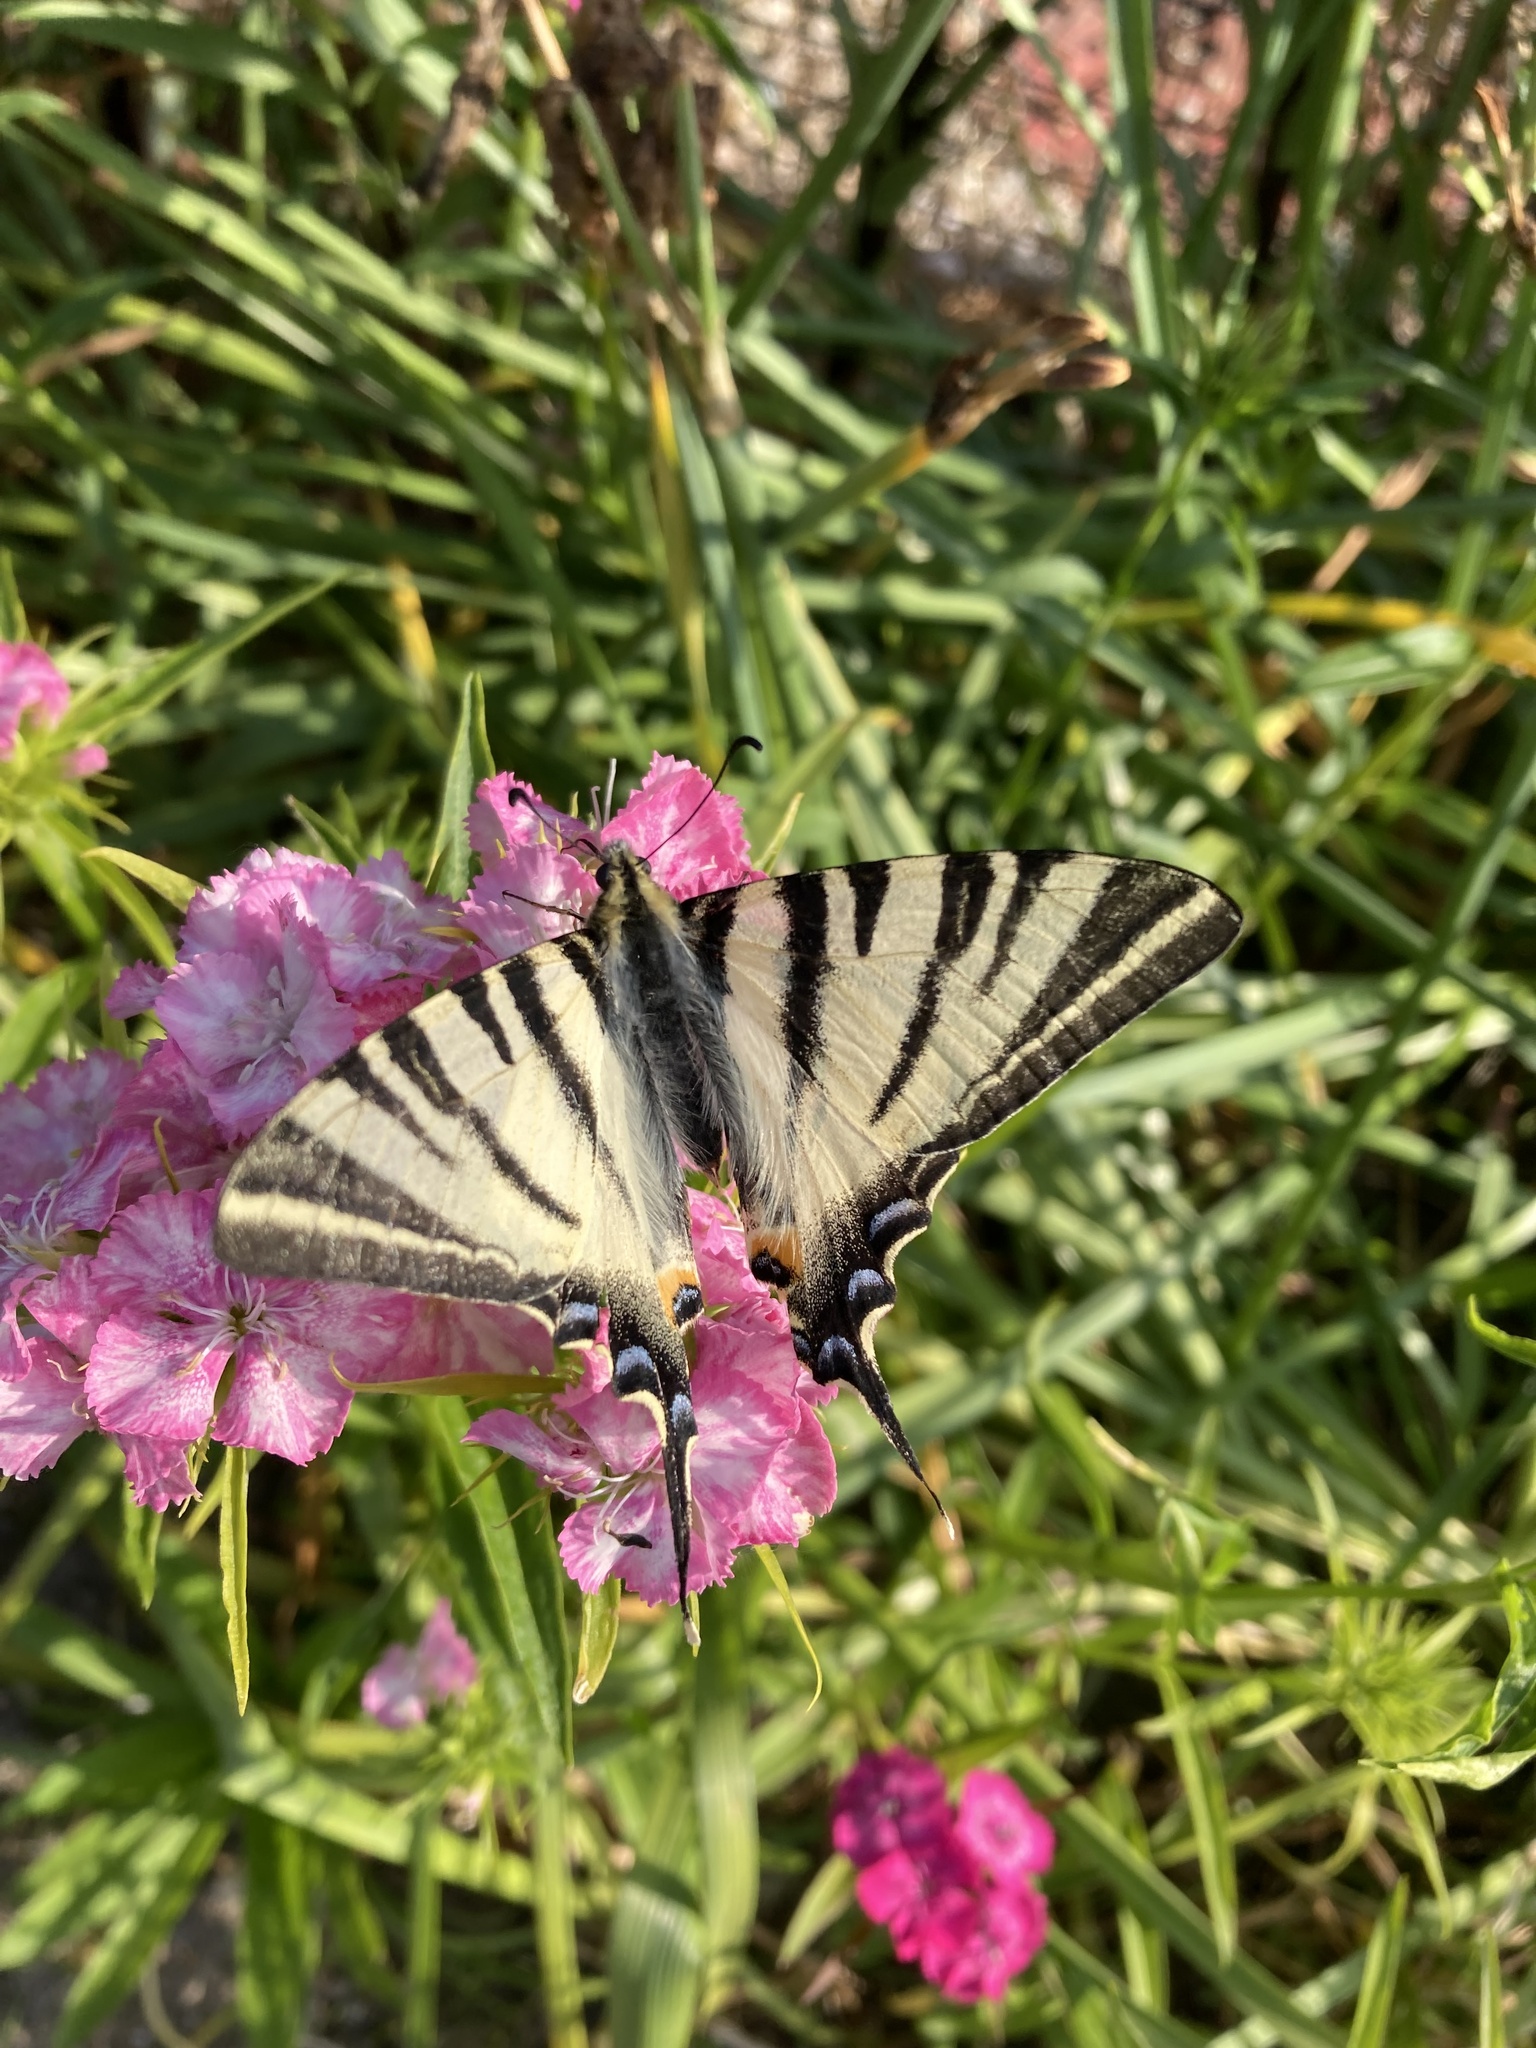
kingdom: Animalia
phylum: Arthropoda
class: Insecta
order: Lepidoptera
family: Papilionidae
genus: Iphiclides
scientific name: Iphiclides podalirius
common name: Scarce swallowtail
